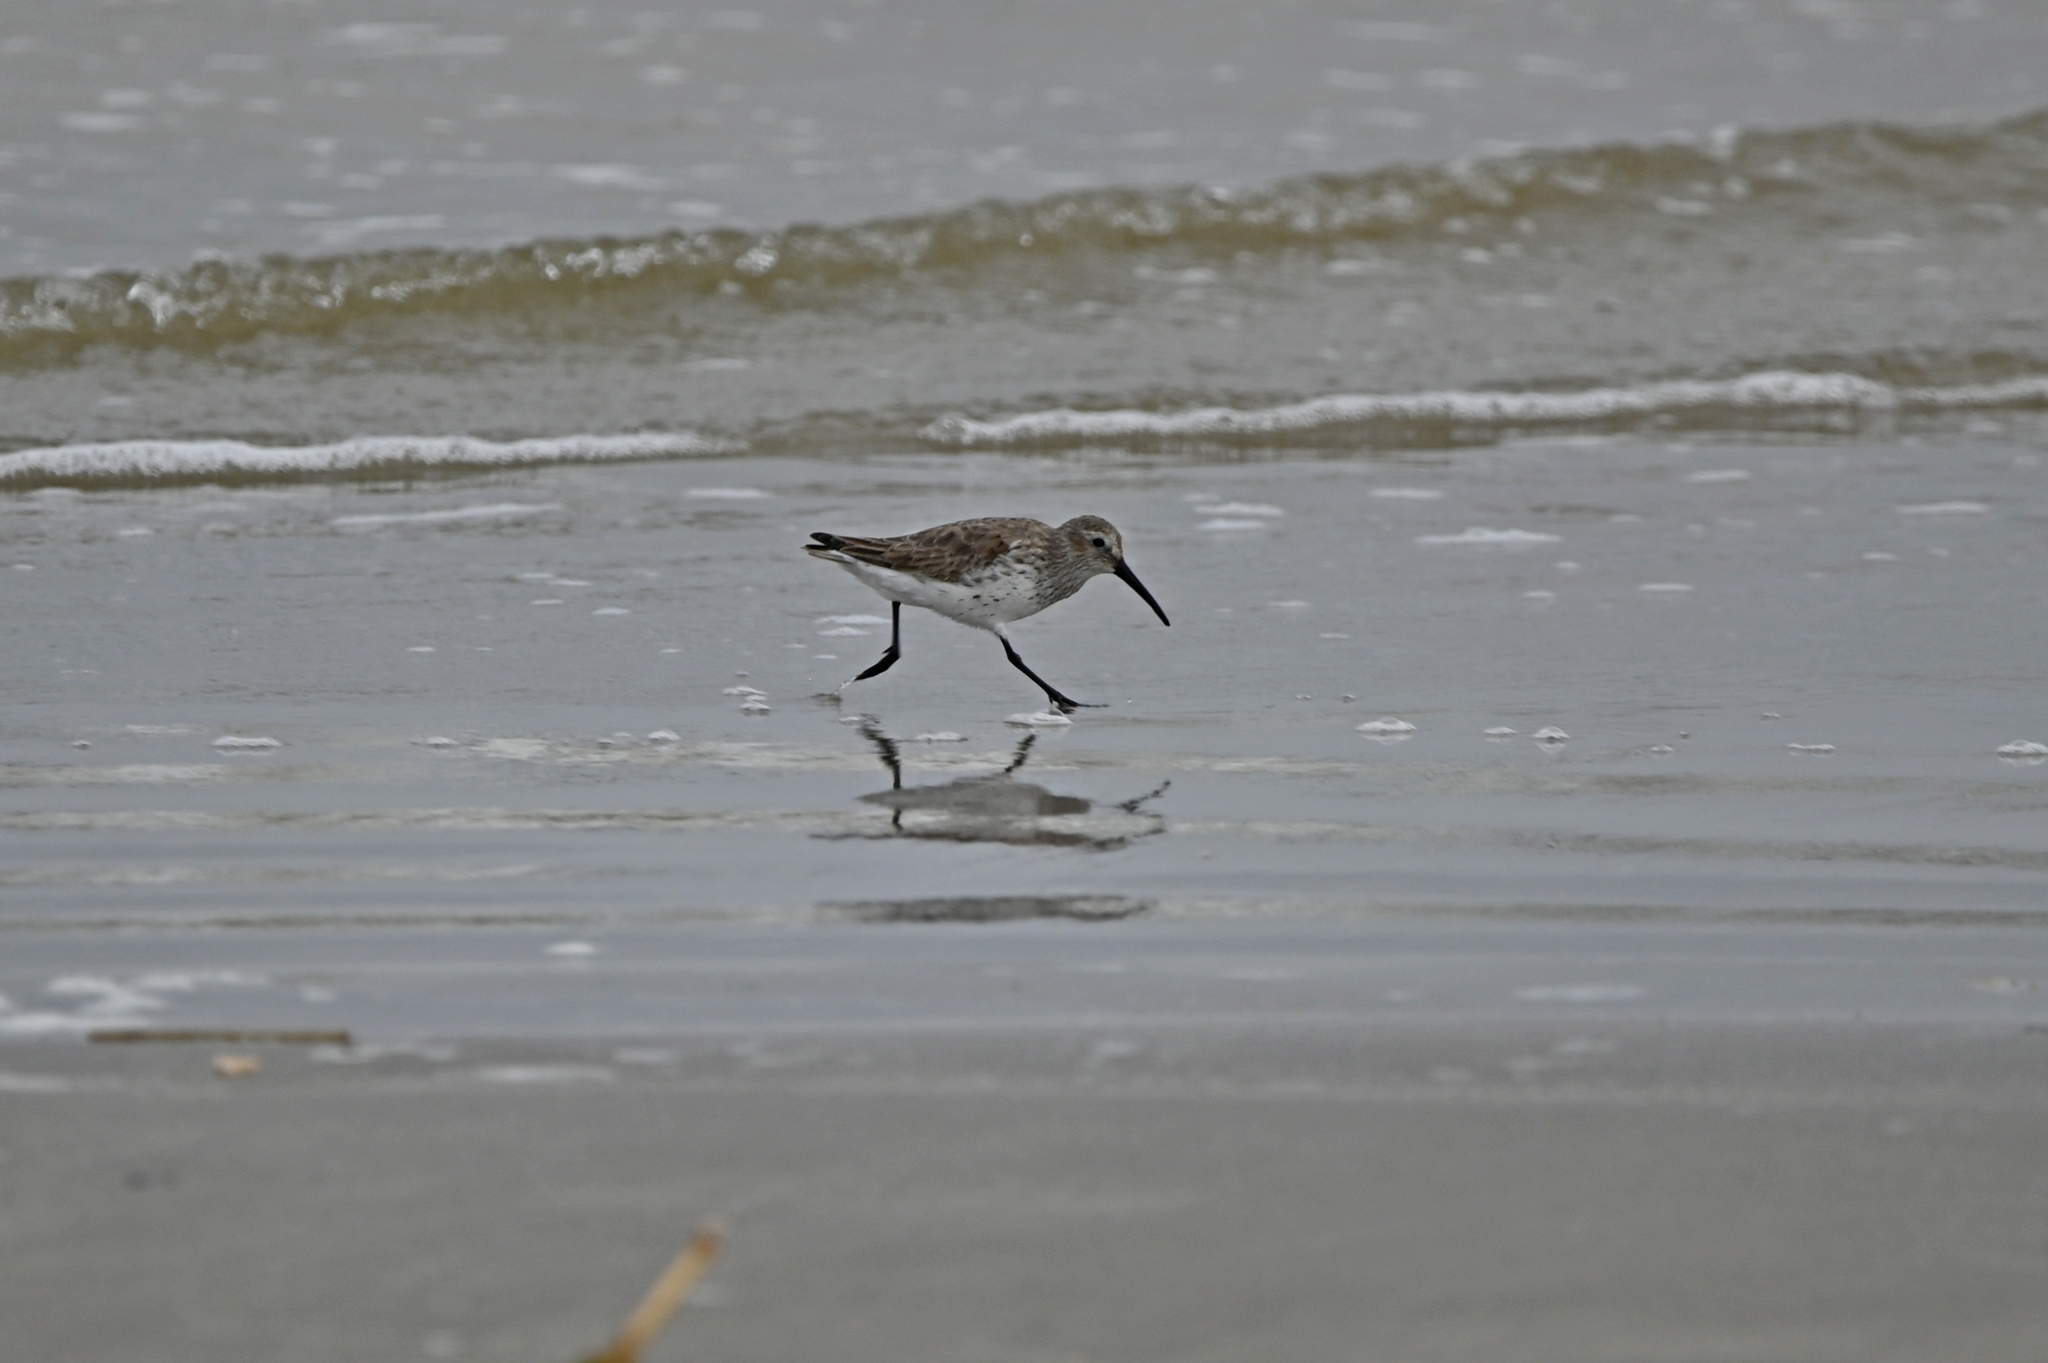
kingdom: Animalia
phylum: Chordata
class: Aves
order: Charadriiformes
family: Scolopacidae
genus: Calidris
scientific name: Calidris alpina
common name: Dunlin
